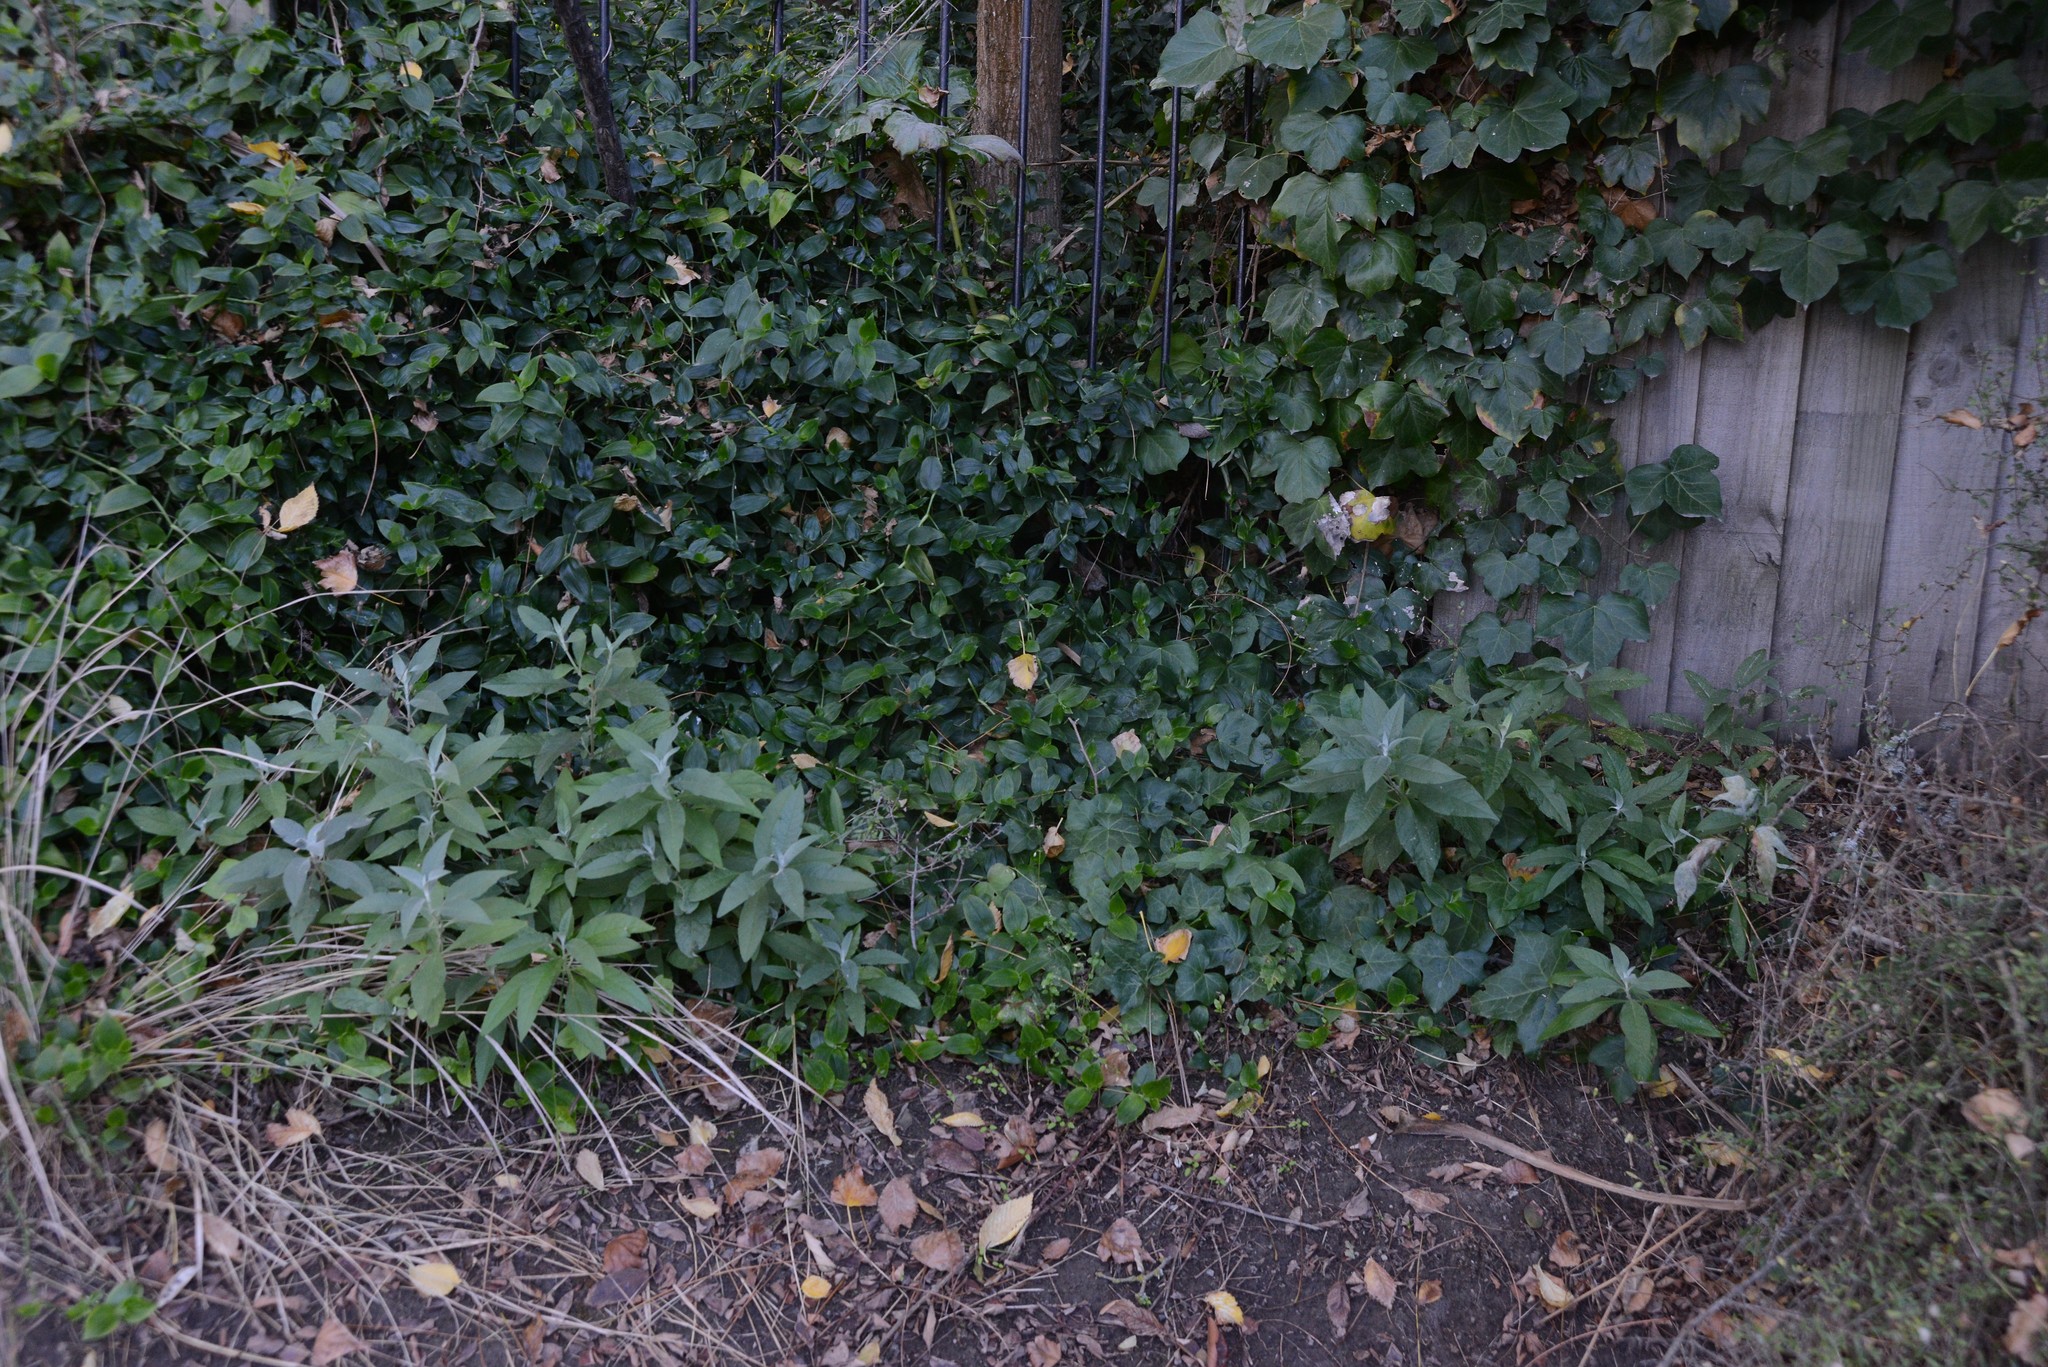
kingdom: Plantae
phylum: Tracheophyta
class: Magnoliopsida
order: Lamiales
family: Scrophulariaceae
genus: Buddleja
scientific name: Buddleja davidii
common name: Butterfly-bush
